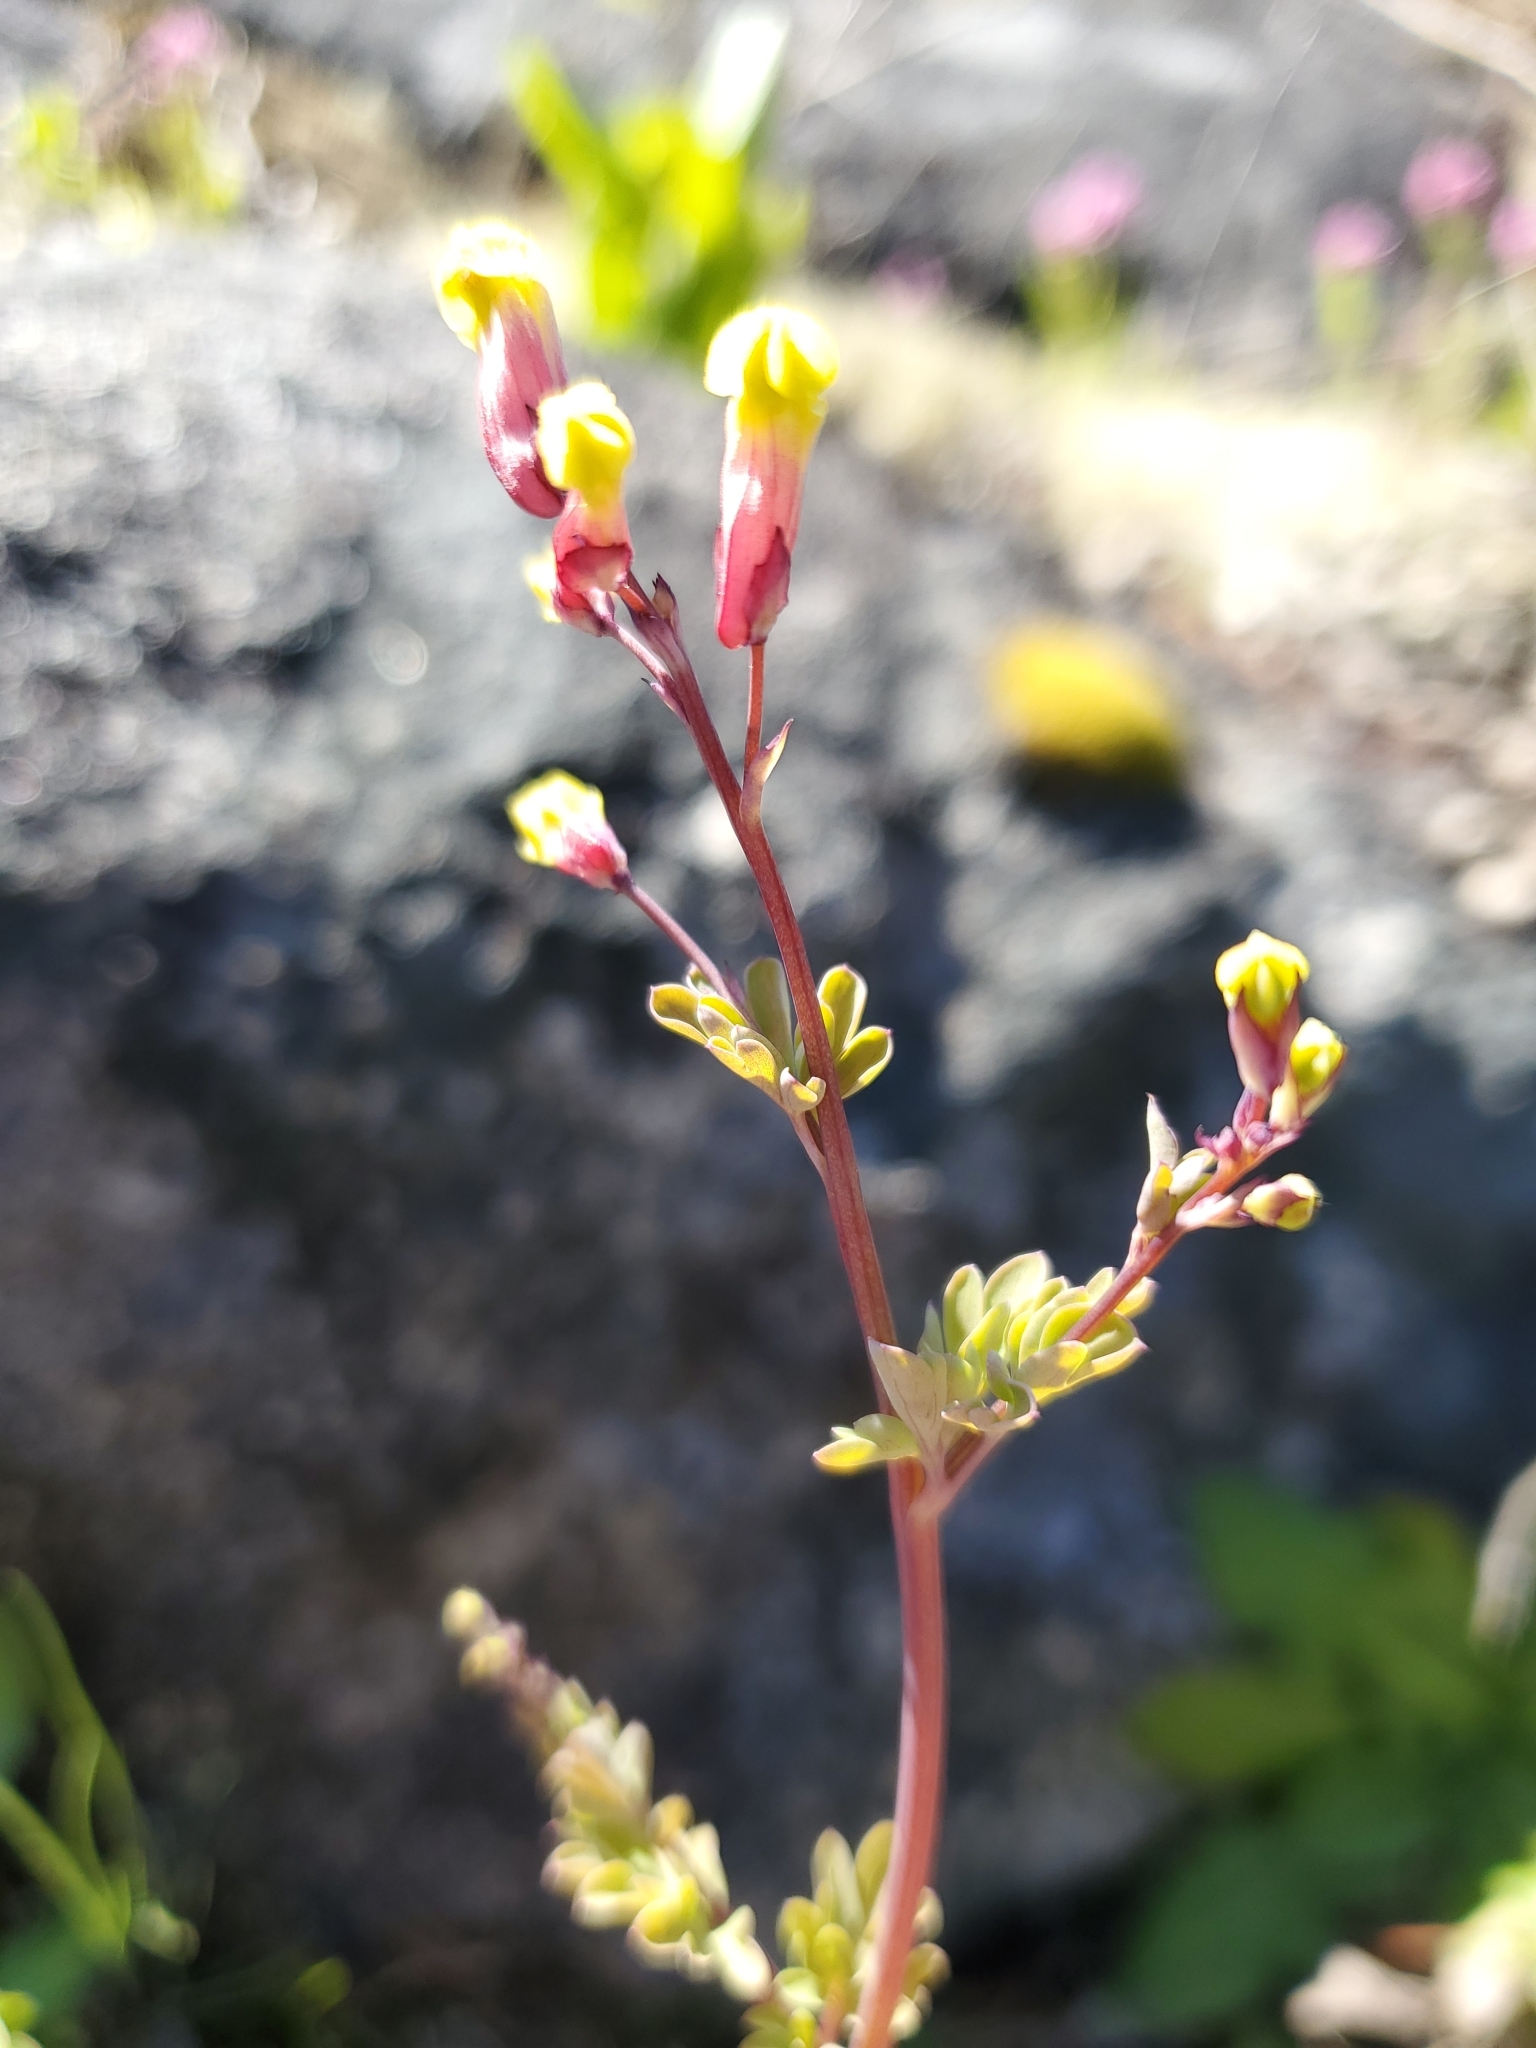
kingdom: Plantae
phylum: Tracheophyta
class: Magnoliopsida
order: Ranunculales
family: Papaveraceae
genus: Capnoides
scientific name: Capnoides sempervirens
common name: Rock harlequin
